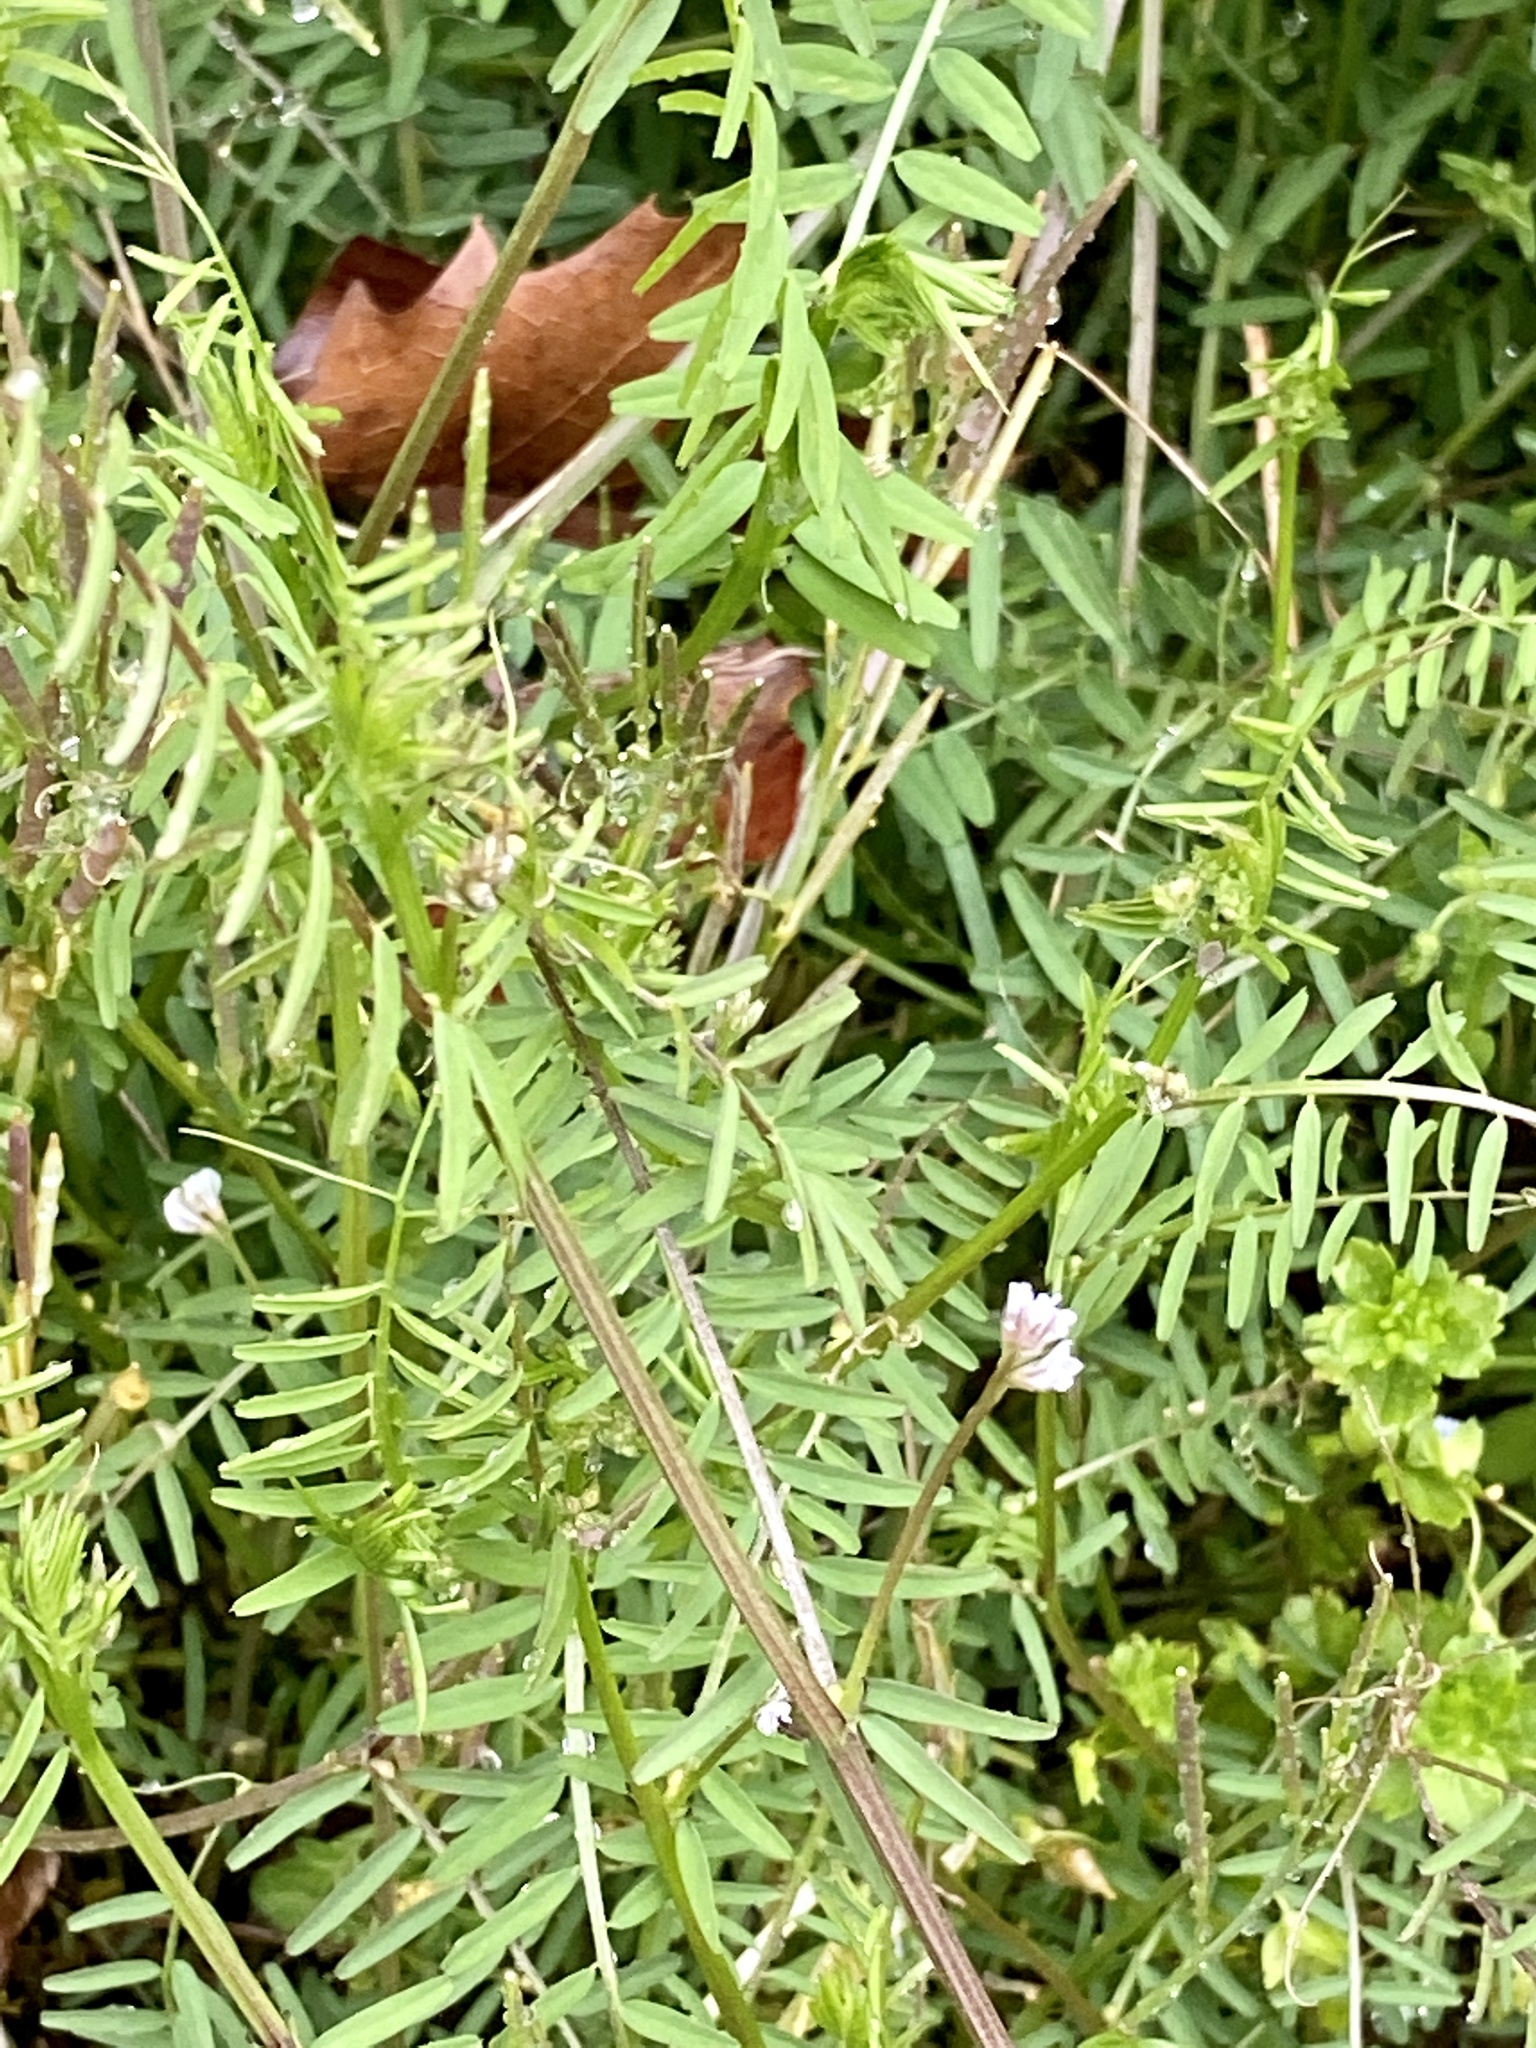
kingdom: Plantae
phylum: Tracheophyta
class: Magnoliopsida
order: Fabales
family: Fabaceae
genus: Vicia
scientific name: Vicia hirsuta
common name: Tiny vetch
